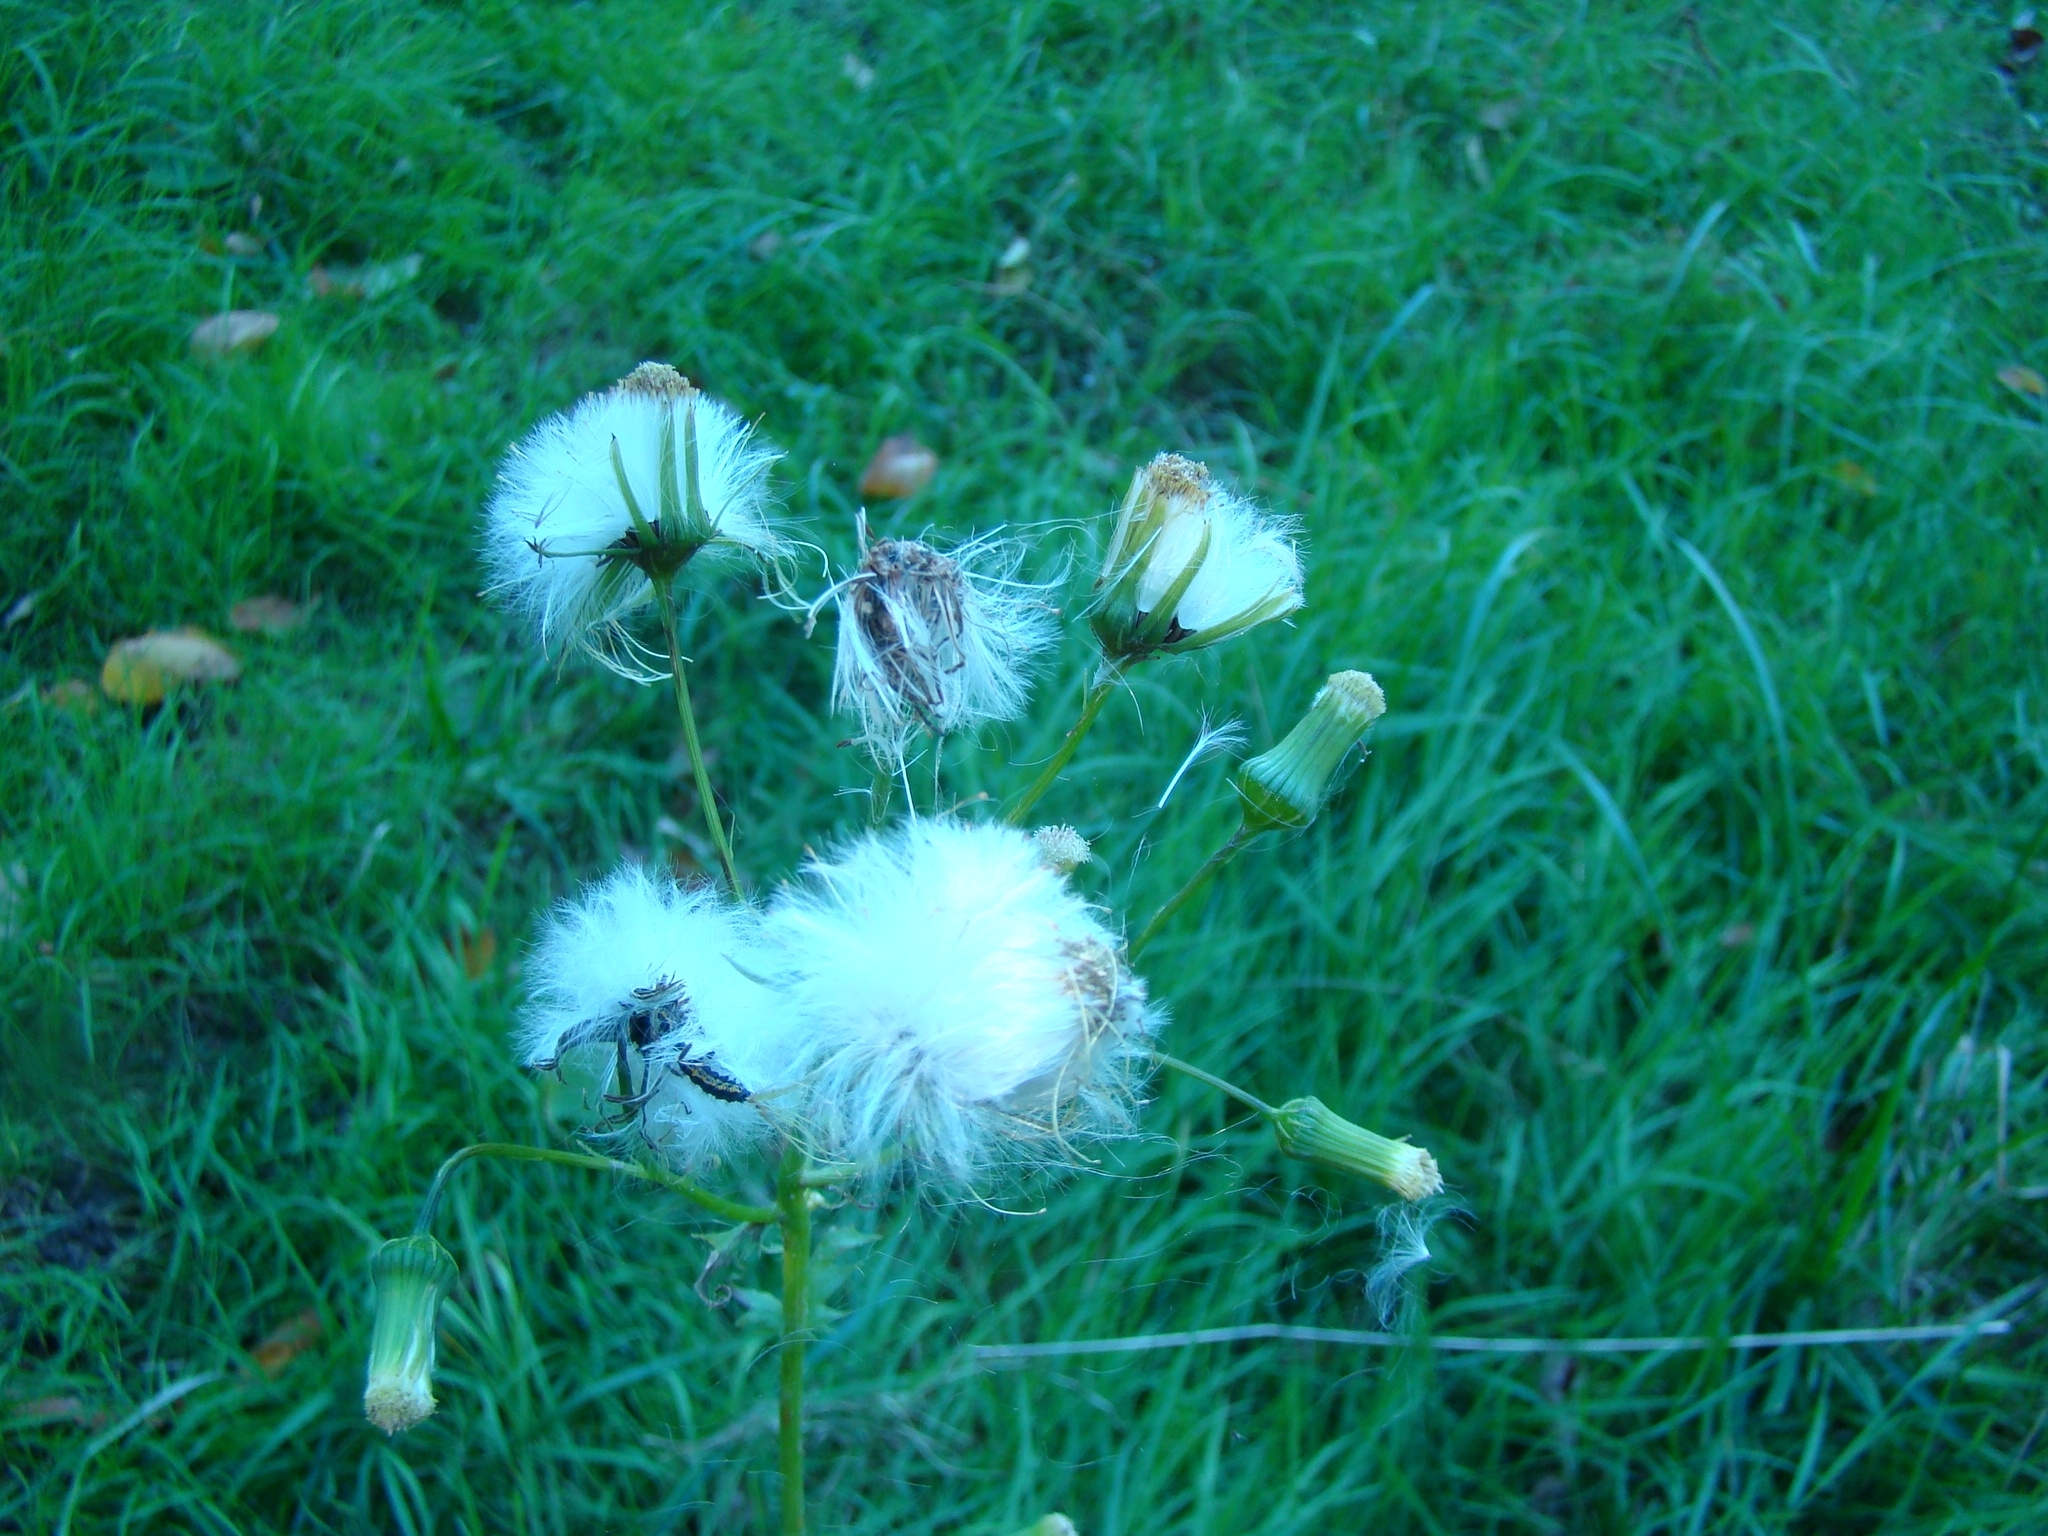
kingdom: Plantae
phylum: Tracheophyta
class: Magnoliopsida
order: Asterales
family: Asteraceae
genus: Erechtites
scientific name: Erechtites hieraciifolius
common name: American burnweed
